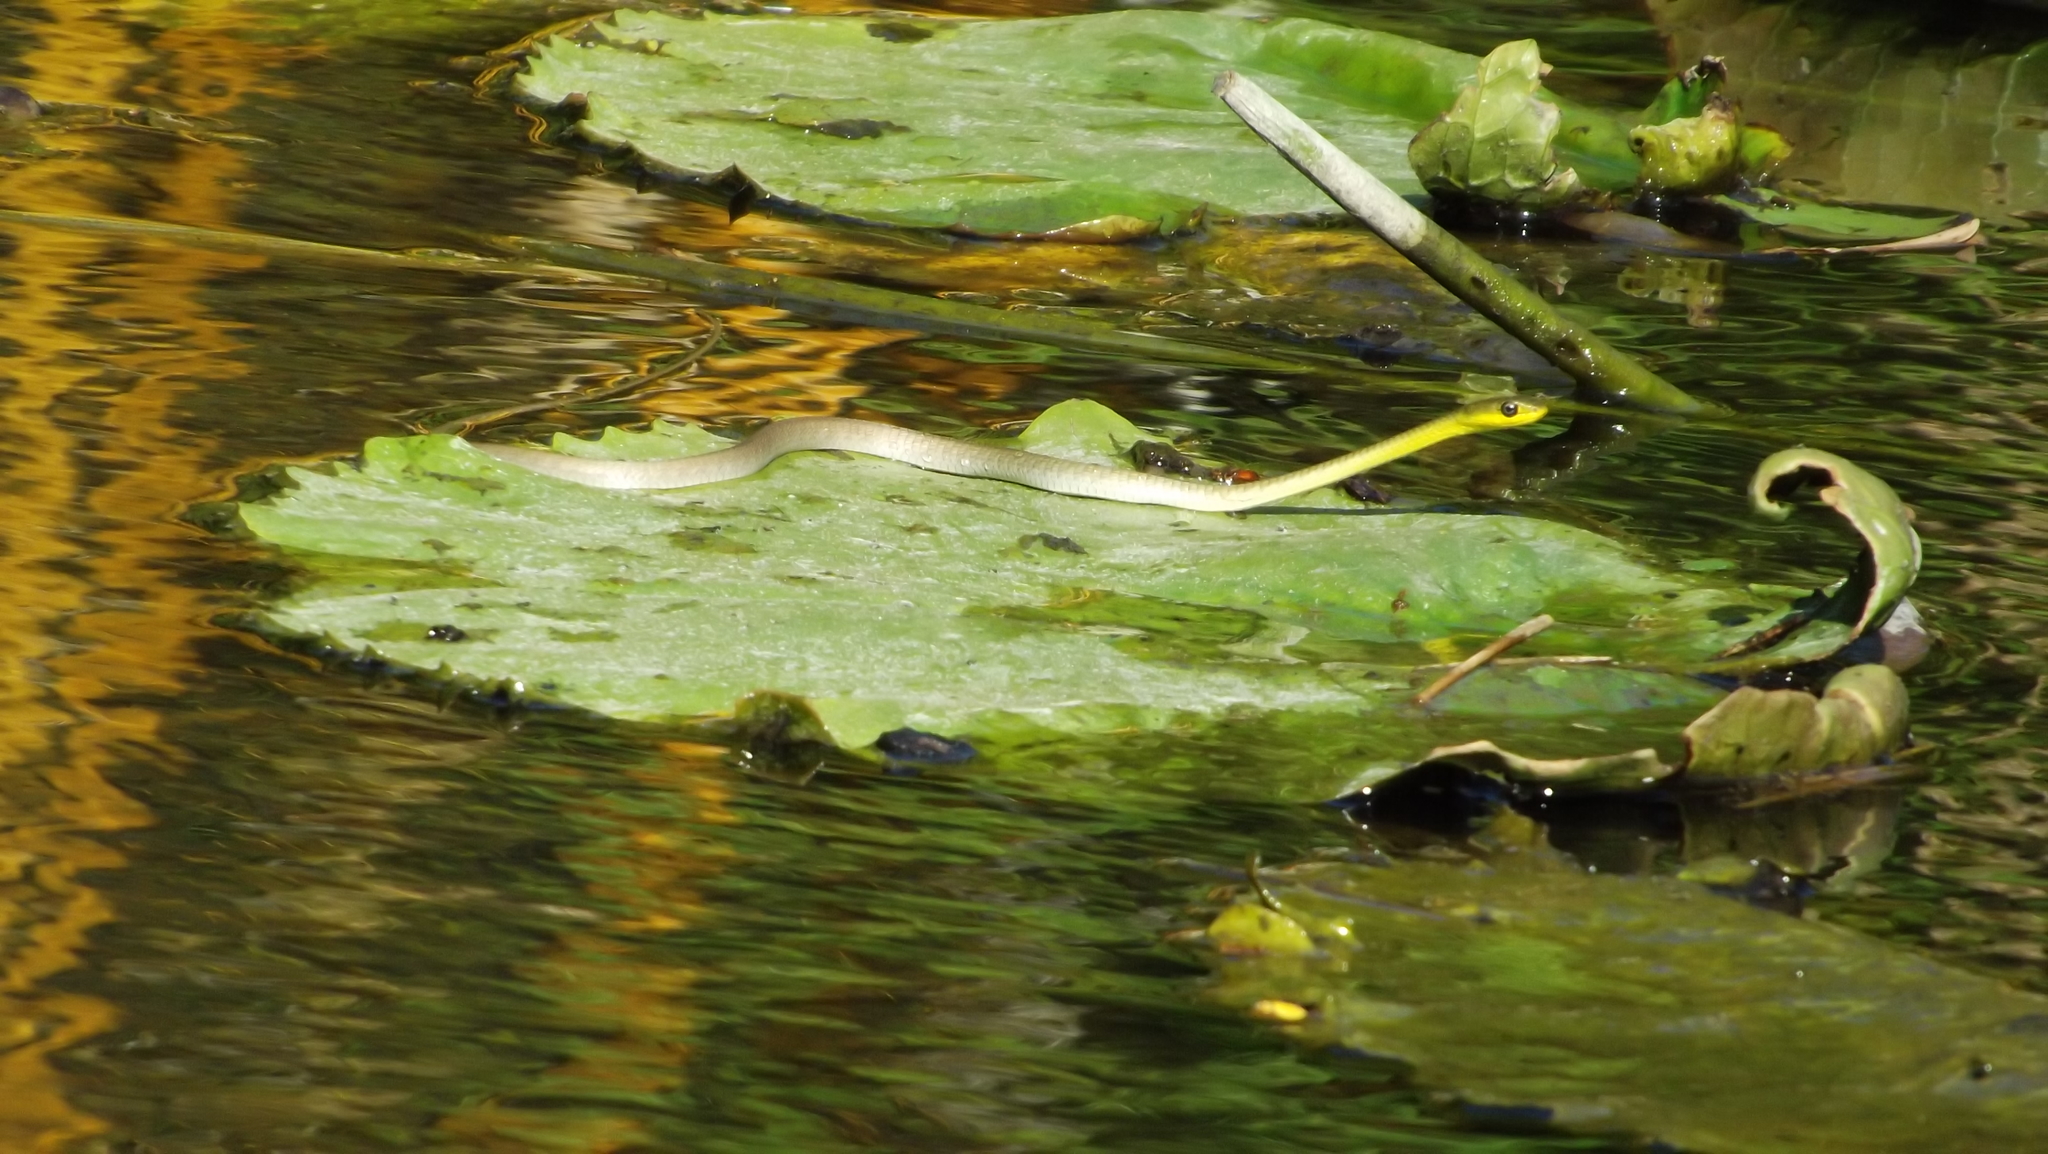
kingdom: Animalia
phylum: Chordata
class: Squamata
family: Colubridae
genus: Dendrelaphis
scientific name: Dendrelaphis punctulatus
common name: Common tree snake
